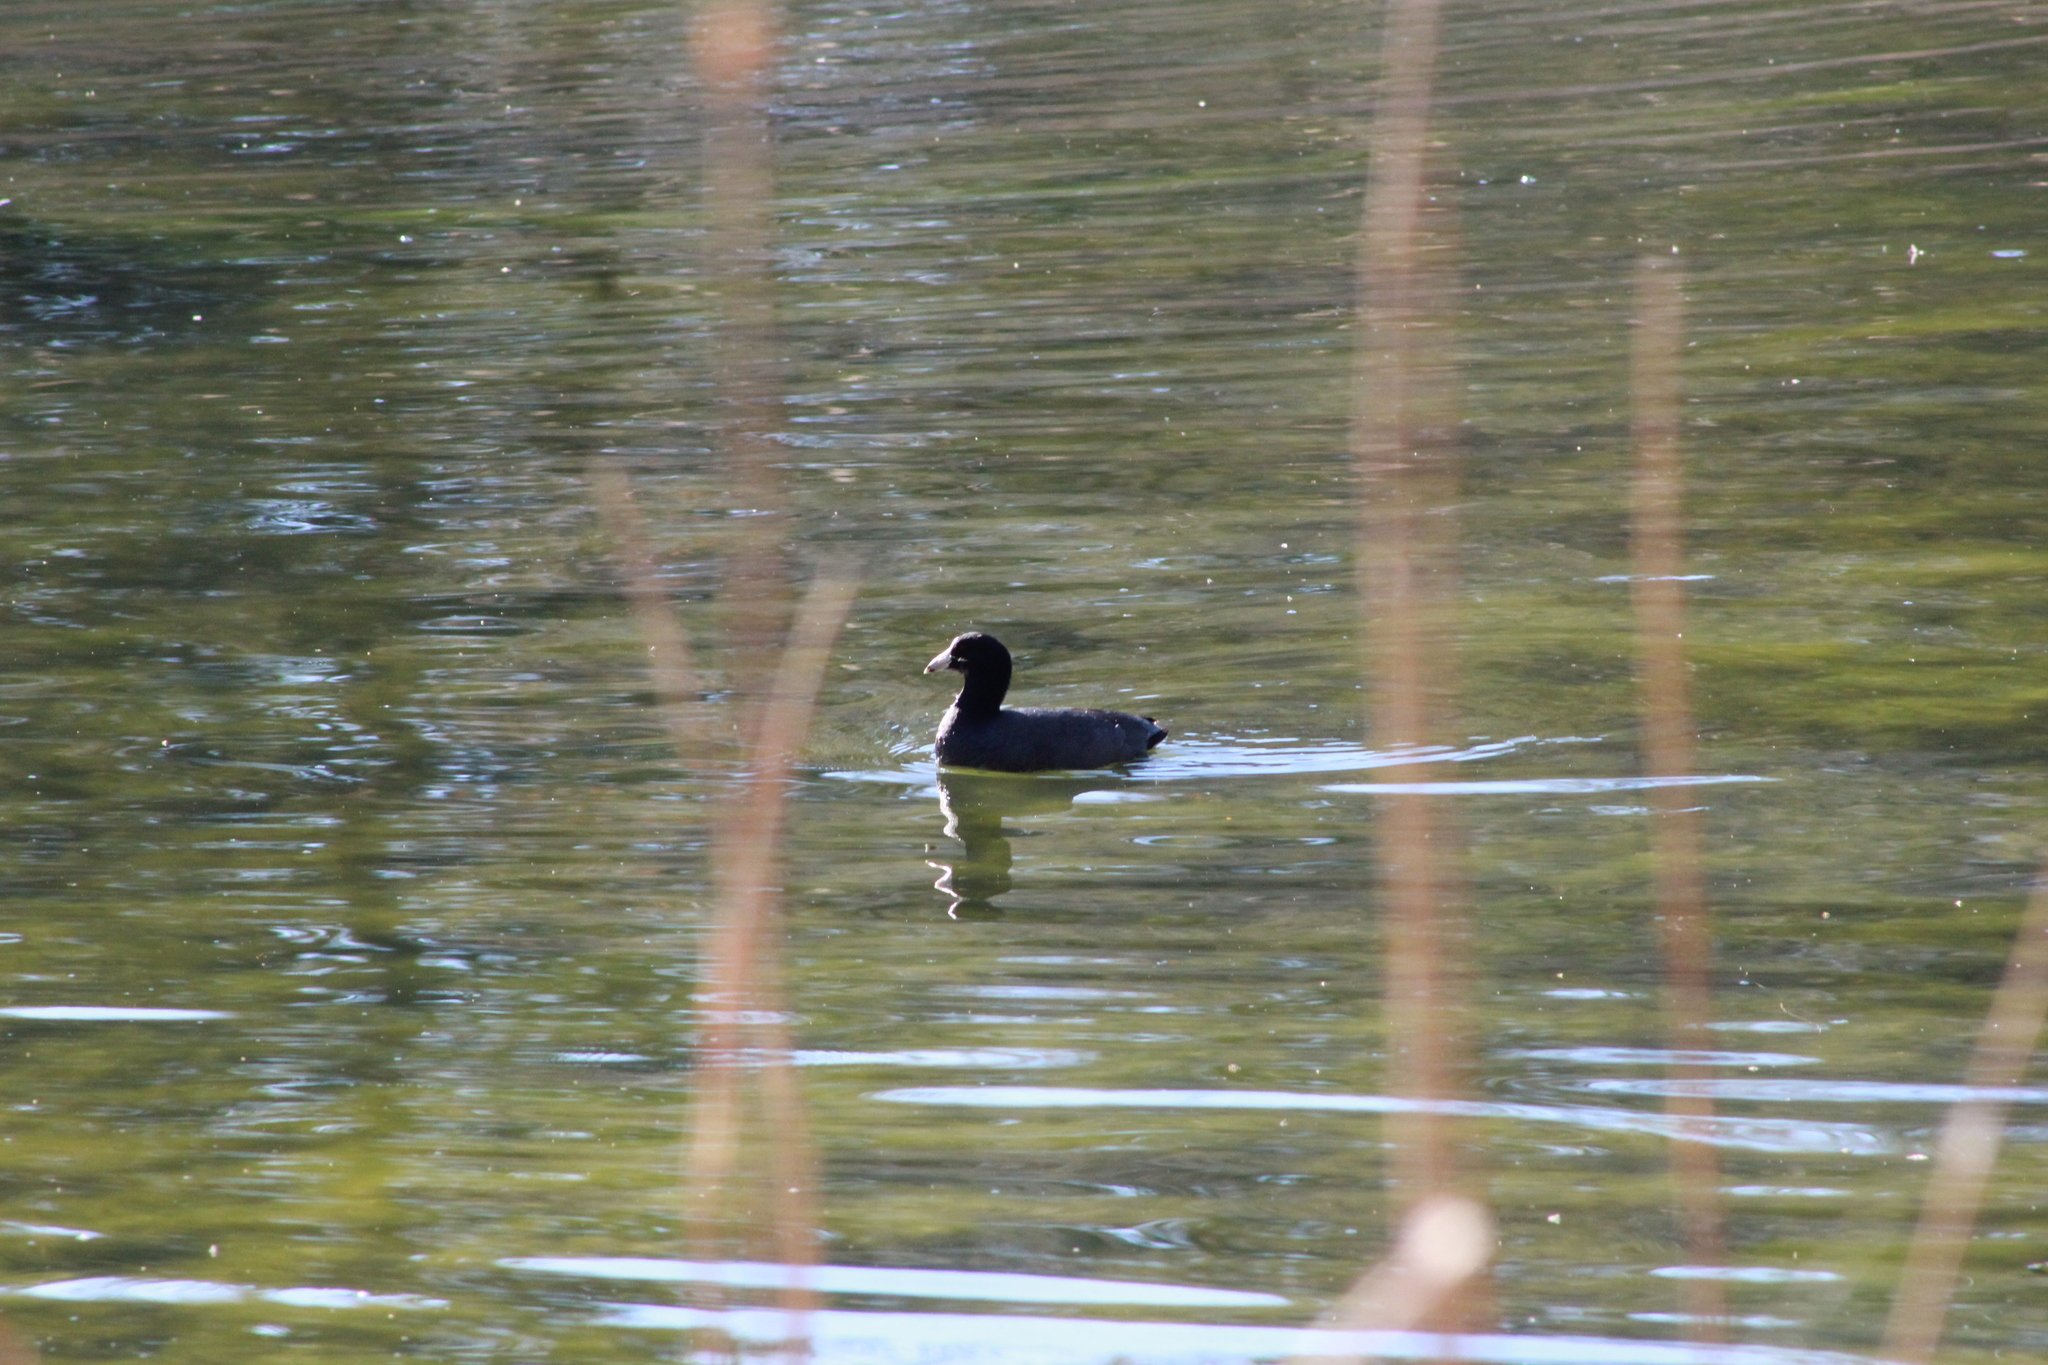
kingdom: Animalia
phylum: Chordata
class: Aves
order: Gruiformes
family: Rallidae
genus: Fulica
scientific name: Fulica americana
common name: American coot
